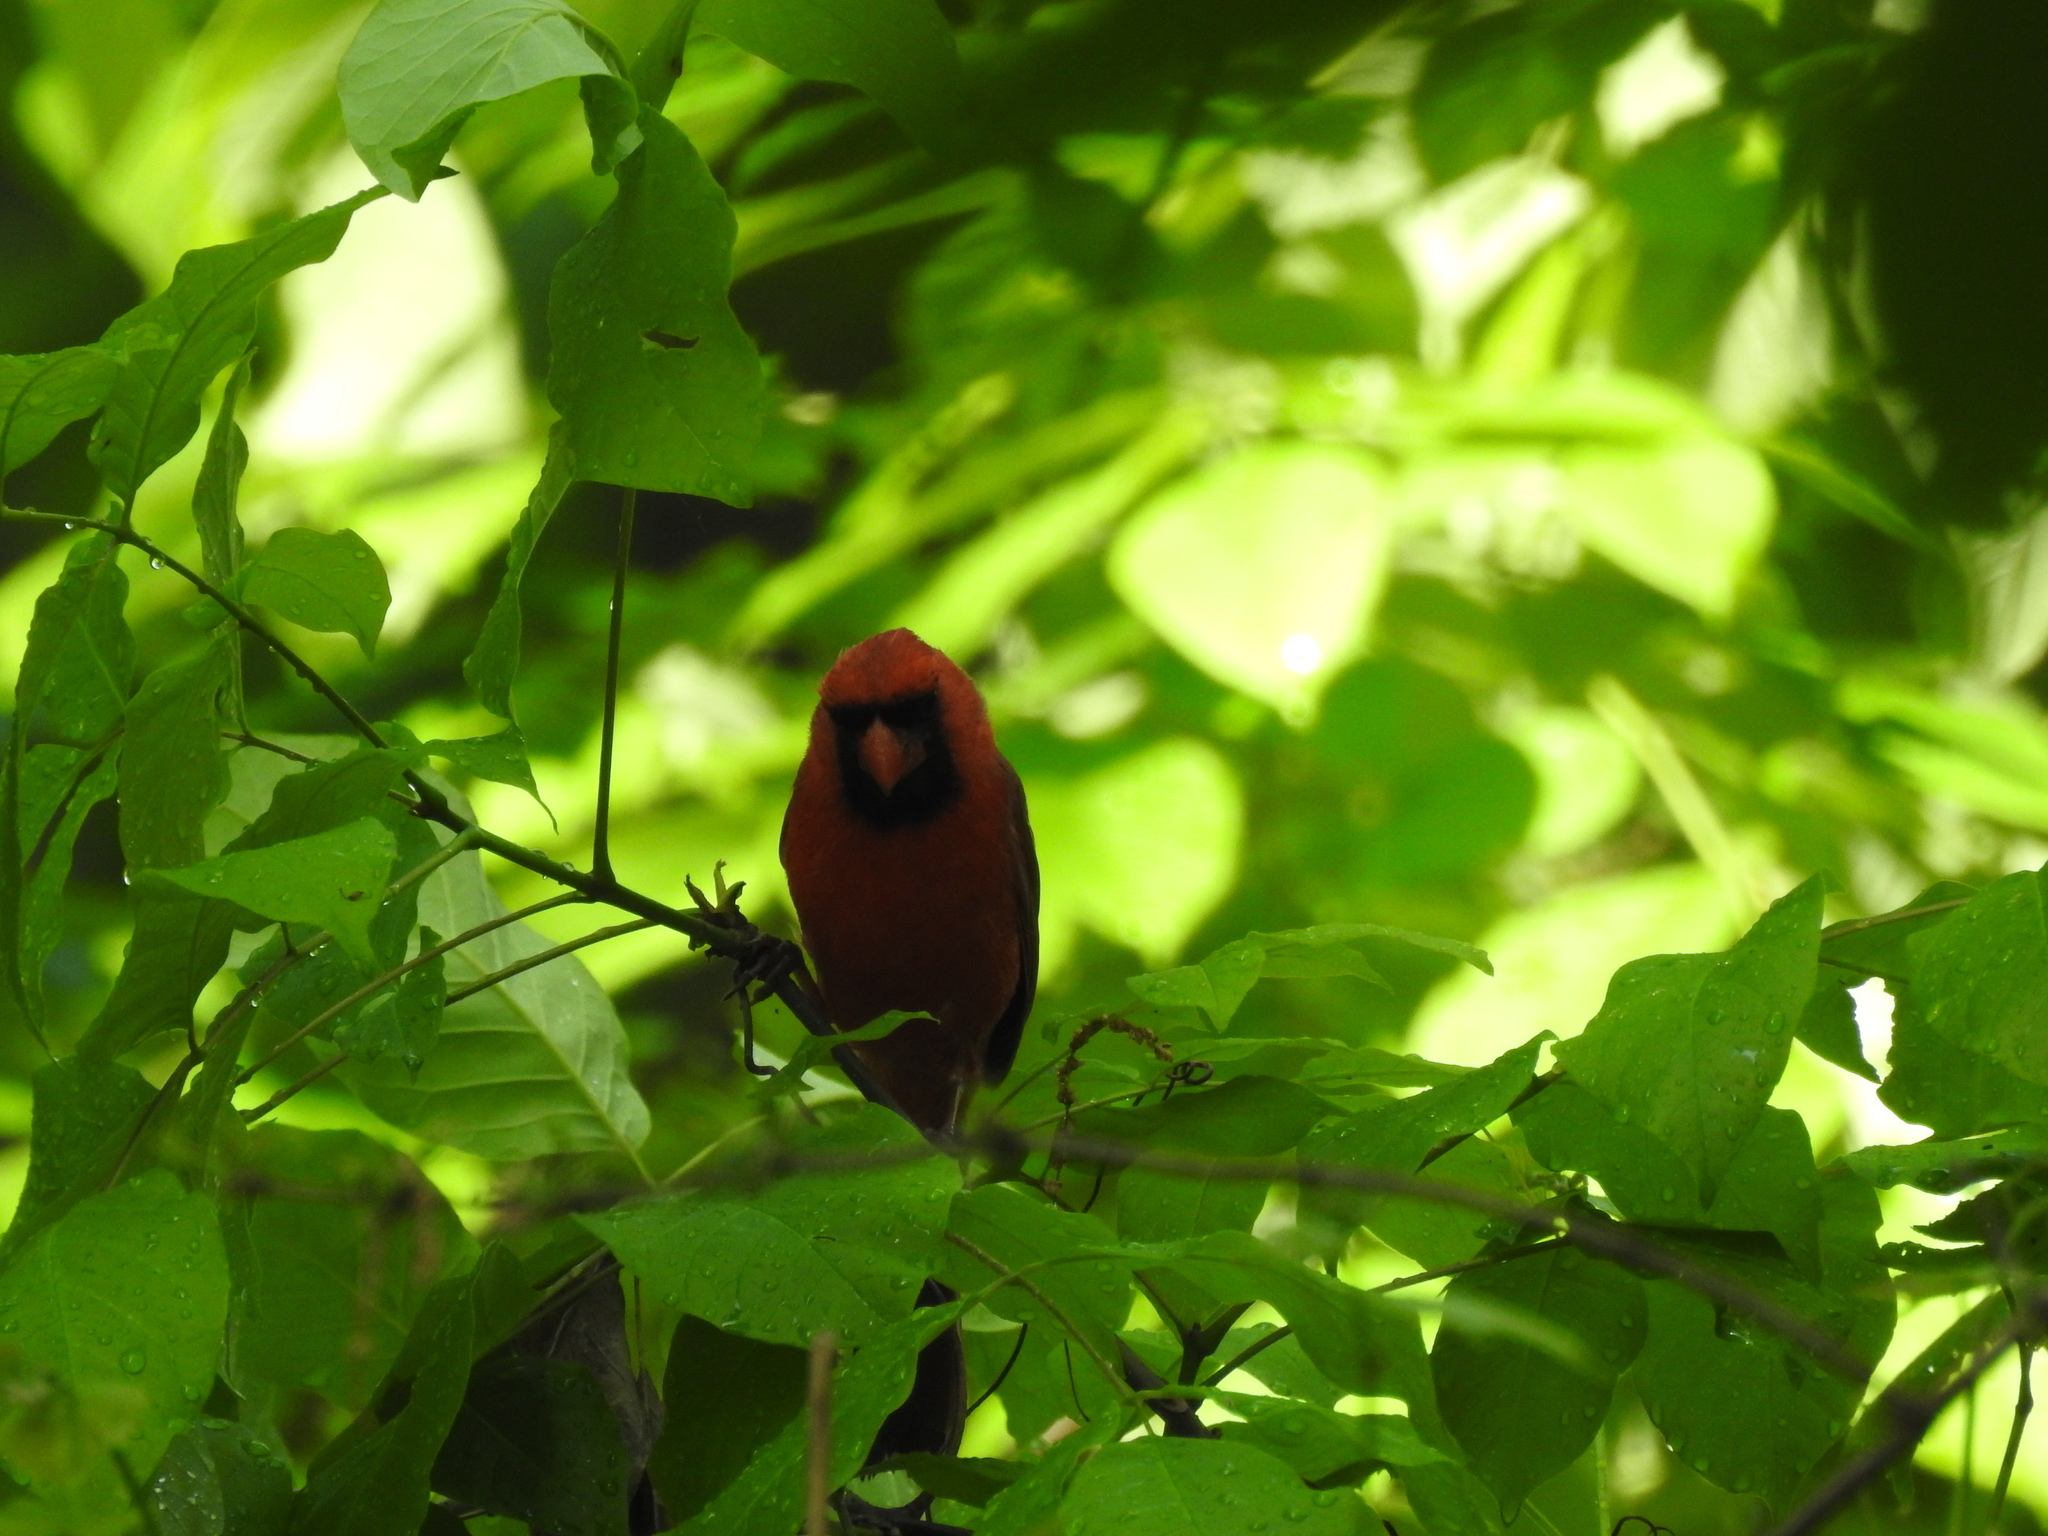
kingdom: Animalia
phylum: Chordata
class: Aves
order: Passeriformes
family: Cardinalidae
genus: Cardinalis
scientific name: Cardinalis cardinalis
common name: Northern cardinal
